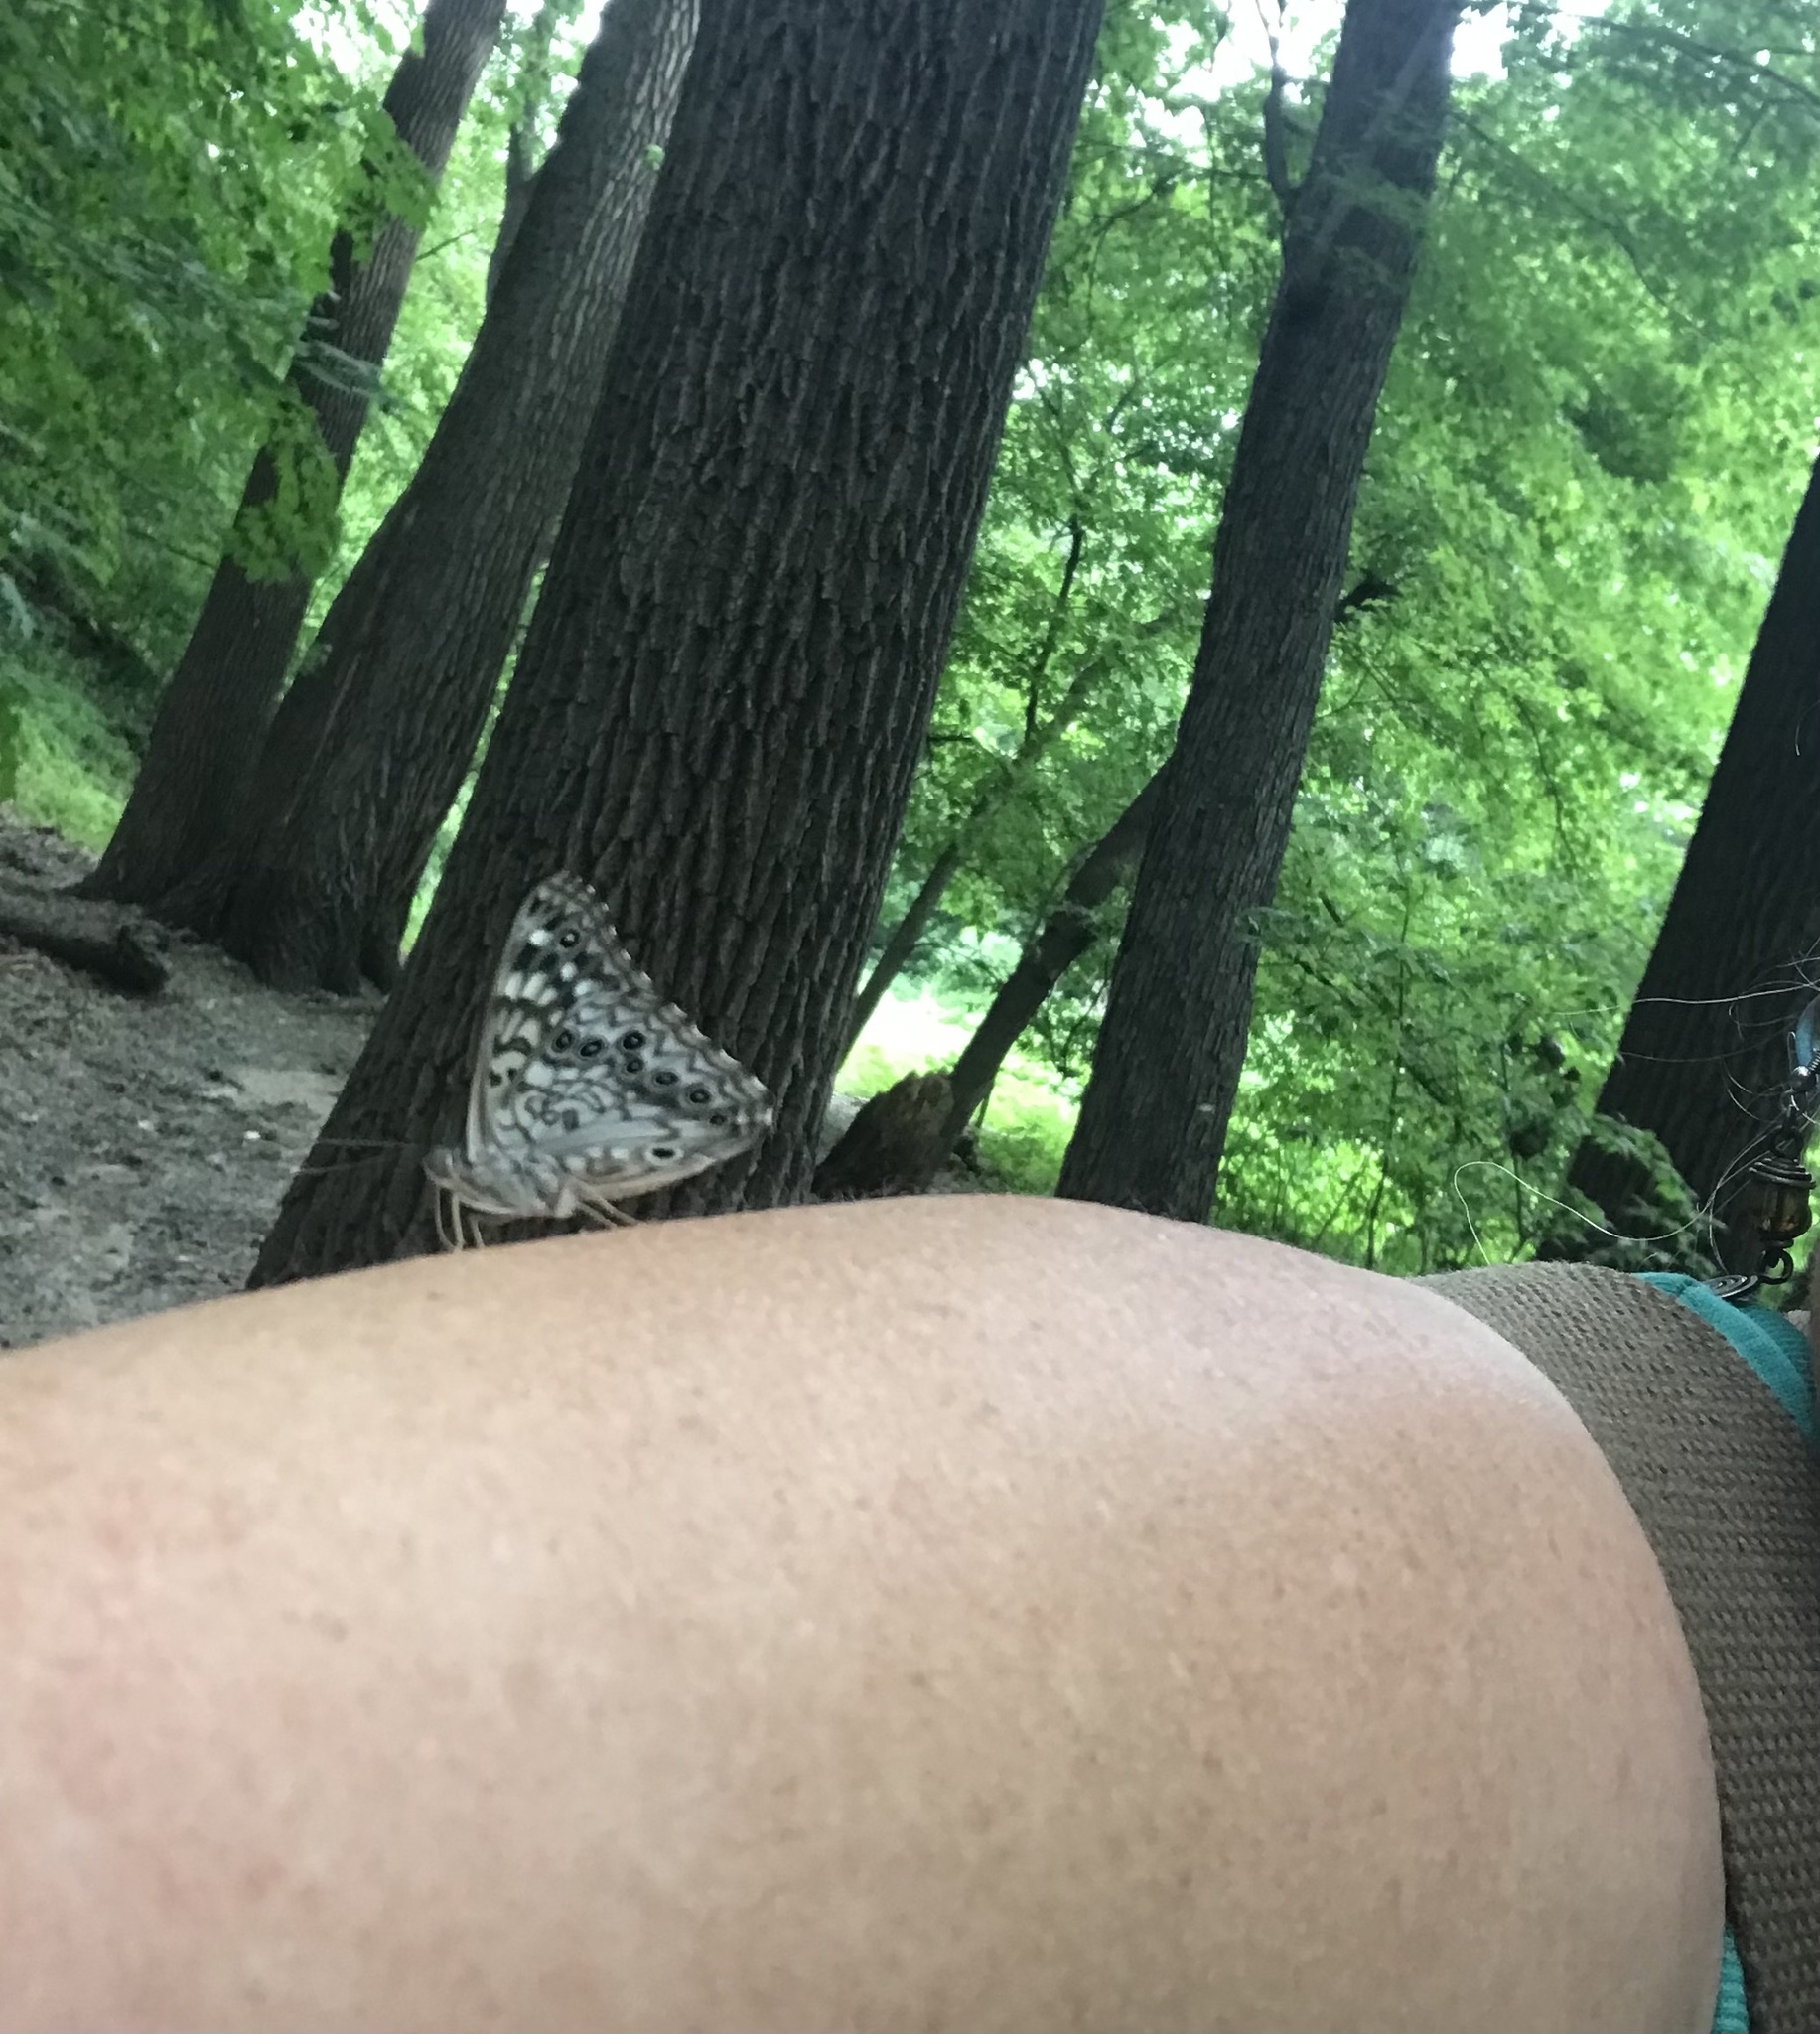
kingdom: Animalia
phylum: Arthropoda
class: Insecta
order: Lepidoptera
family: Nymphalidae
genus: Asterocampa
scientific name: Asterocampa celtis
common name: Hackberry emperor
